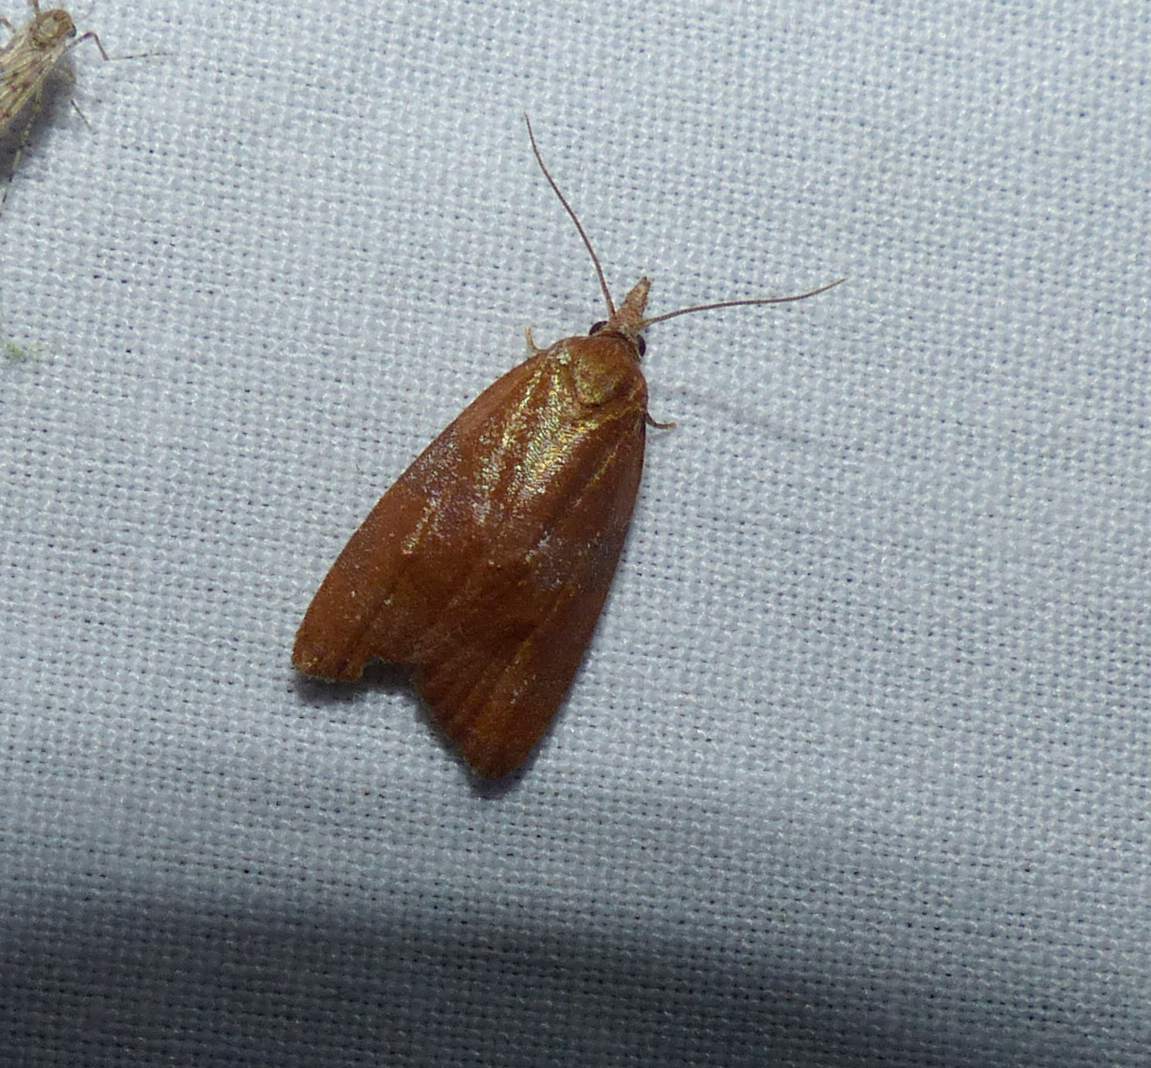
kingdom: Animalia
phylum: Arthropoda
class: Insecta
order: Lepidoptera
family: Tortricidae
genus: Cenopis
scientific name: Cenopis diluticostana
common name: Spring dead-leaf roller moth
